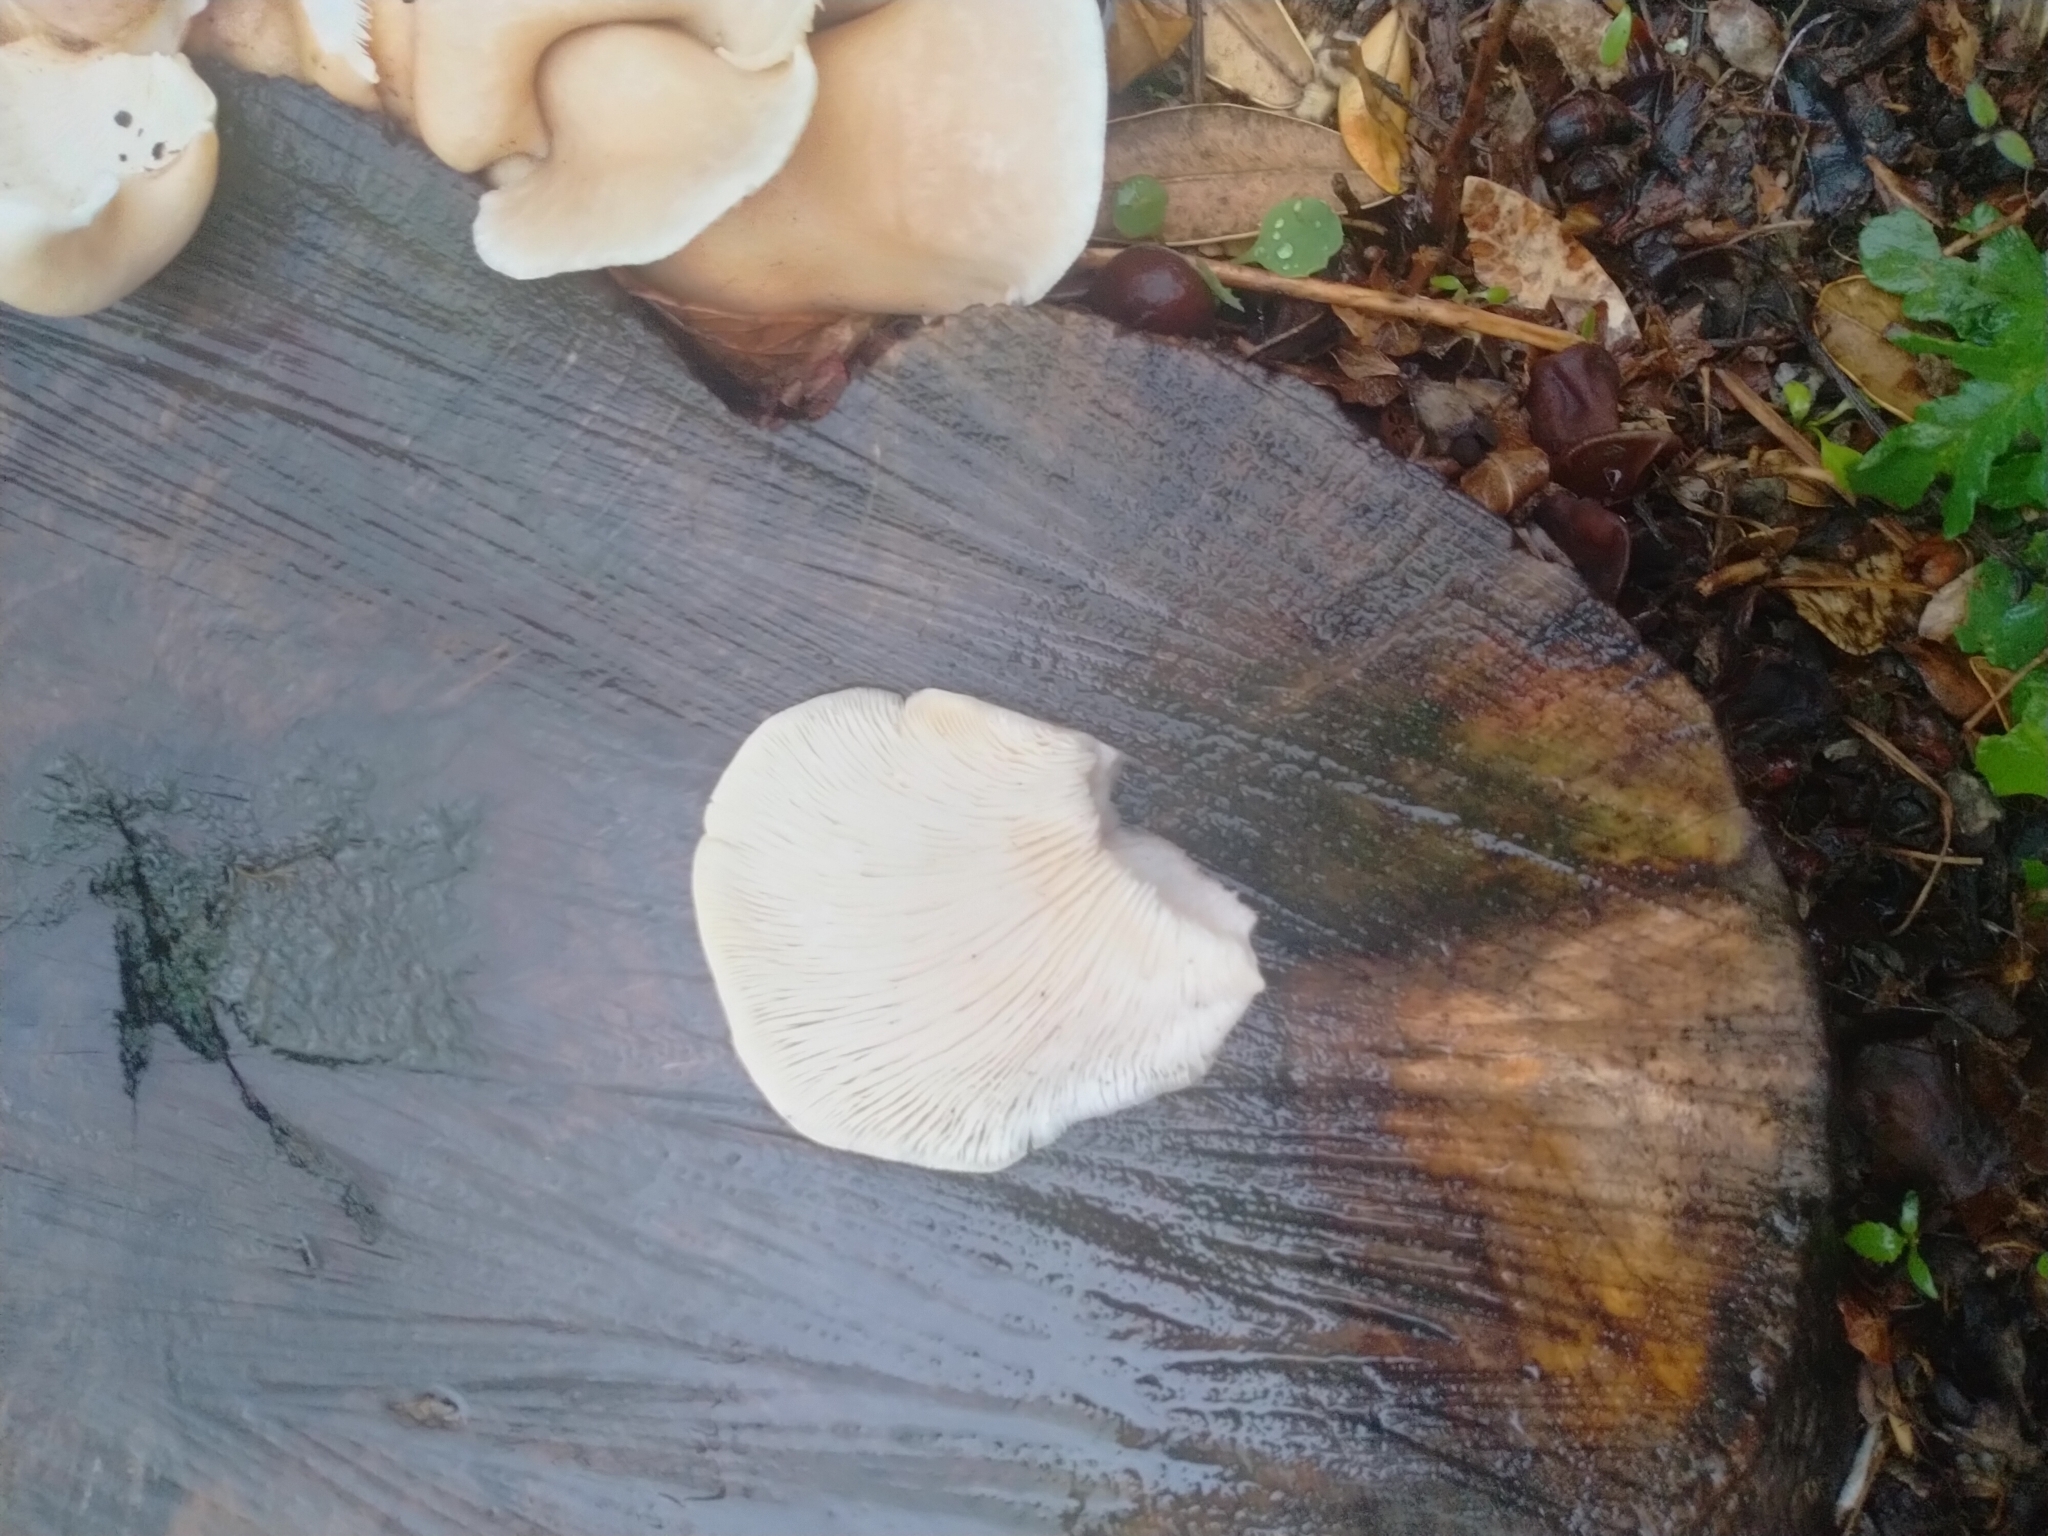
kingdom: Fungi
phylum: Basidiomycota
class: Agaricomycetes
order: Agaricales
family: Pleurotaceae
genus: Pleurotus
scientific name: Pleurotus pulmonarius
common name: Pale oyster
